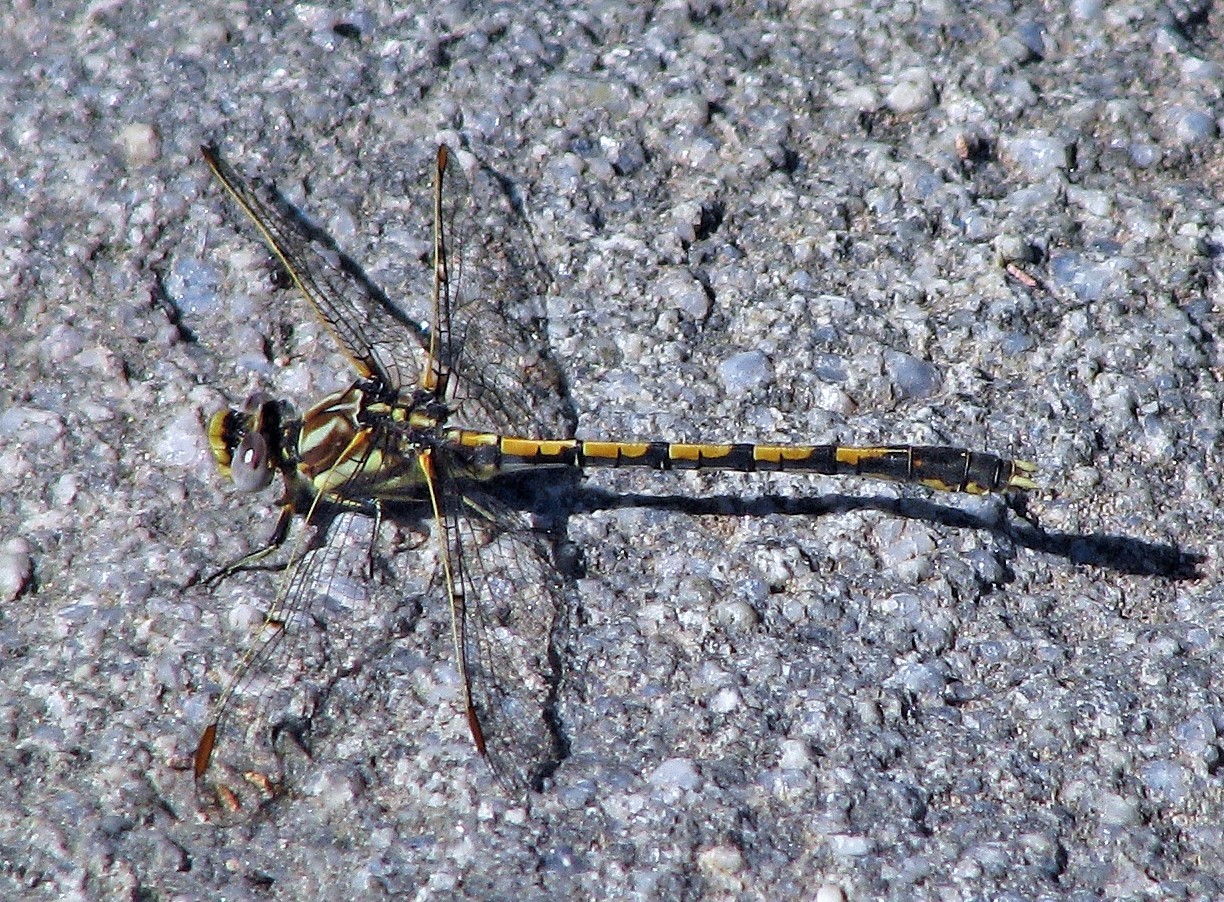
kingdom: Animalia
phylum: Arthropoda
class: Insecta
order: Odonata
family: Gomphidae
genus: Progomphus
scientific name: Progomphus joergenseni
